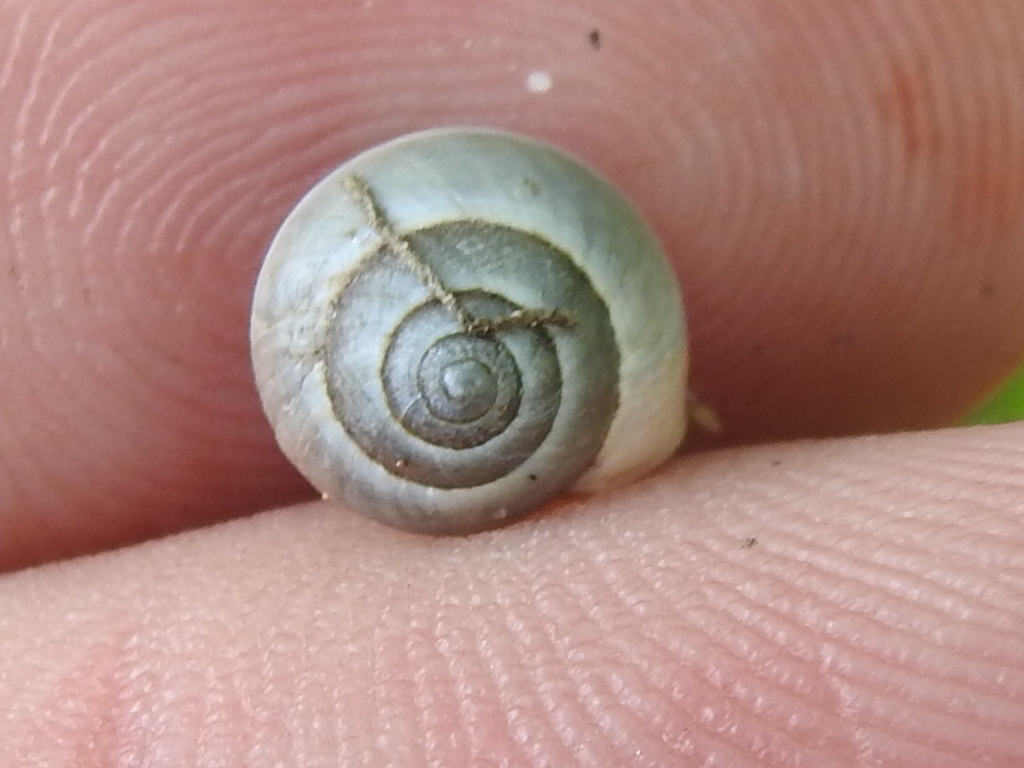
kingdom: Animalia
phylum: Mollusca
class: Gastropoda
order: Cycloneritida
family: Helicinidae
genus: Helicina
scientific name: Helicina orbiculata
